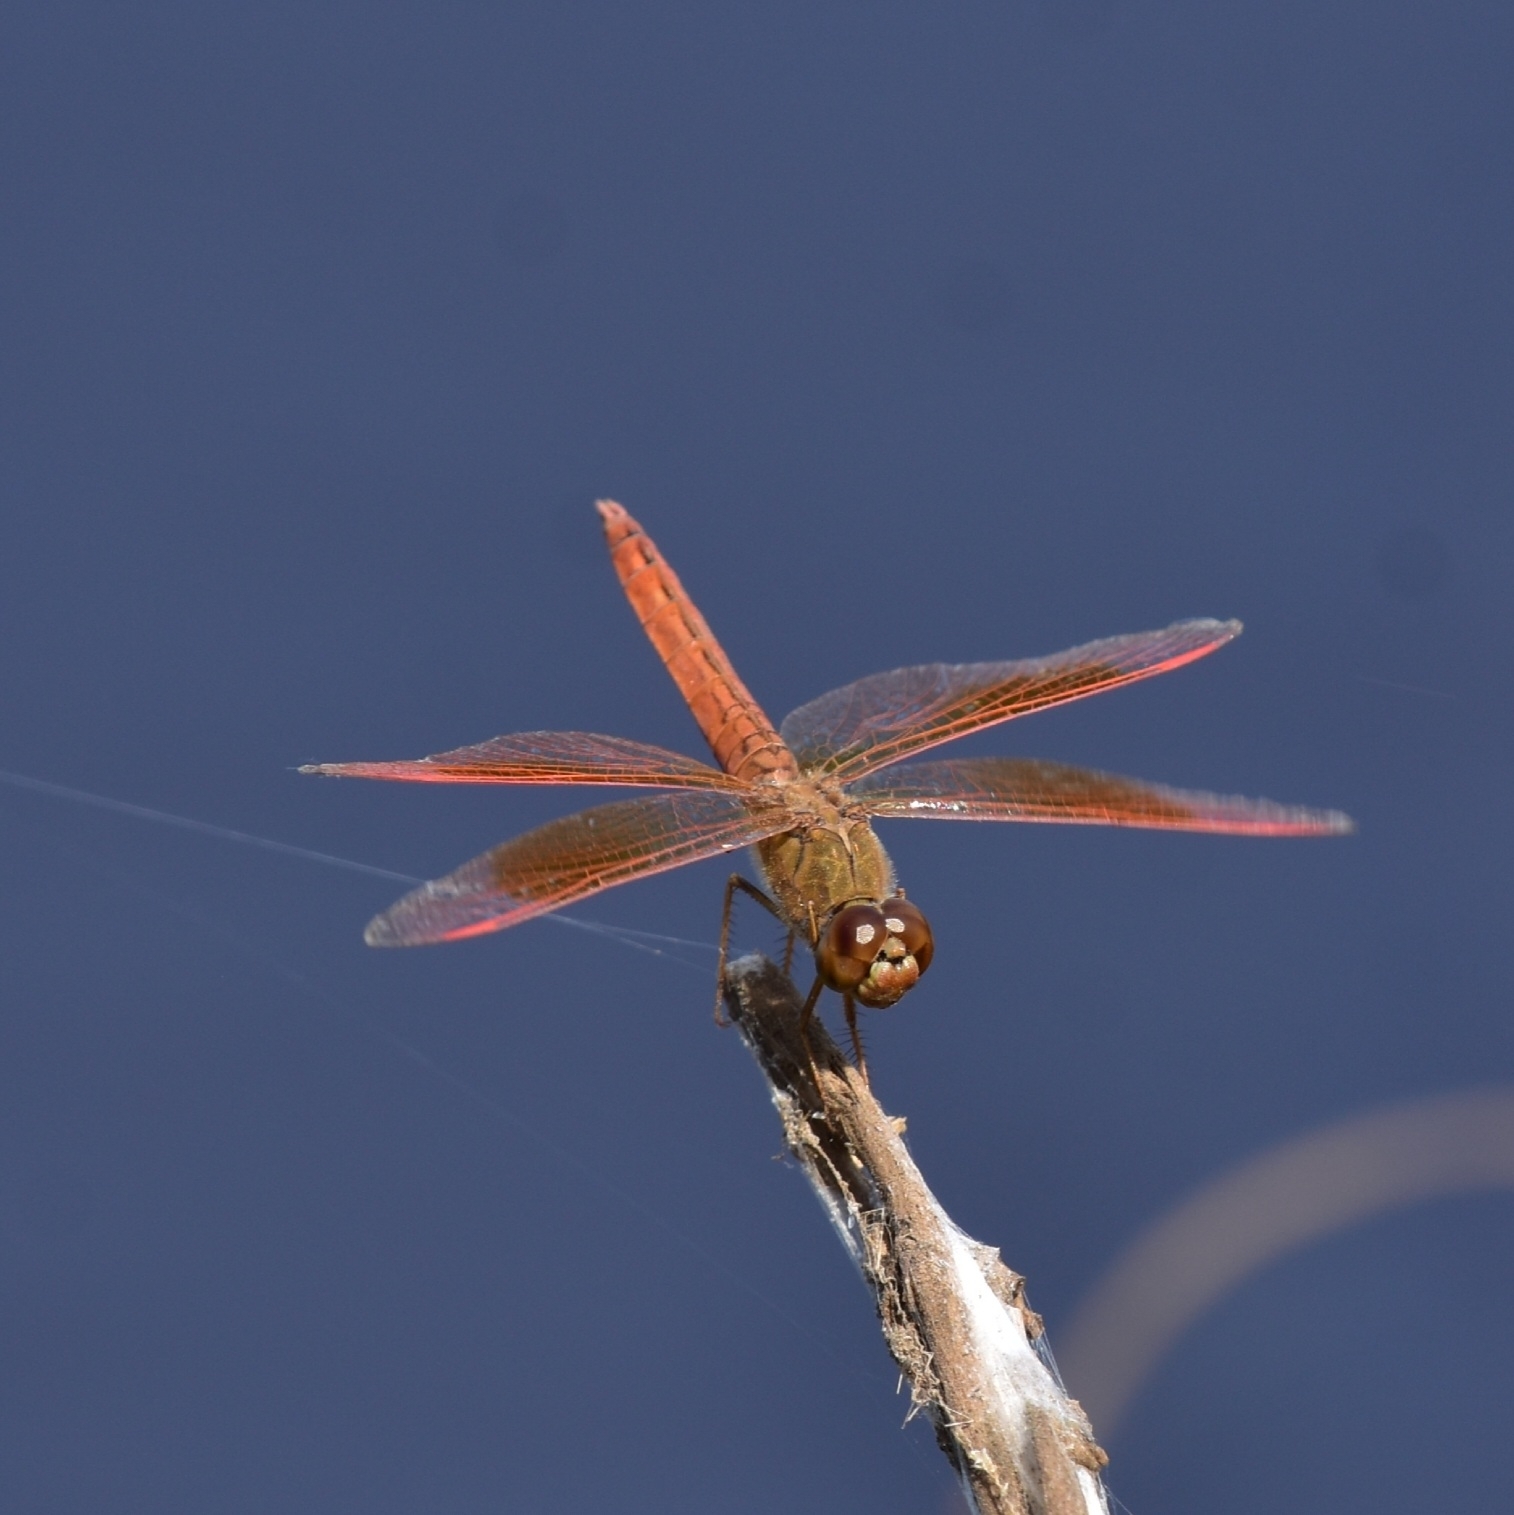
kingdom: Animalia
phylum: Arthropoda
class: Insecta
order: Odonata
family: Libellulidae
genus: Brachythemis
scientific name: Brachythemis contaminata
